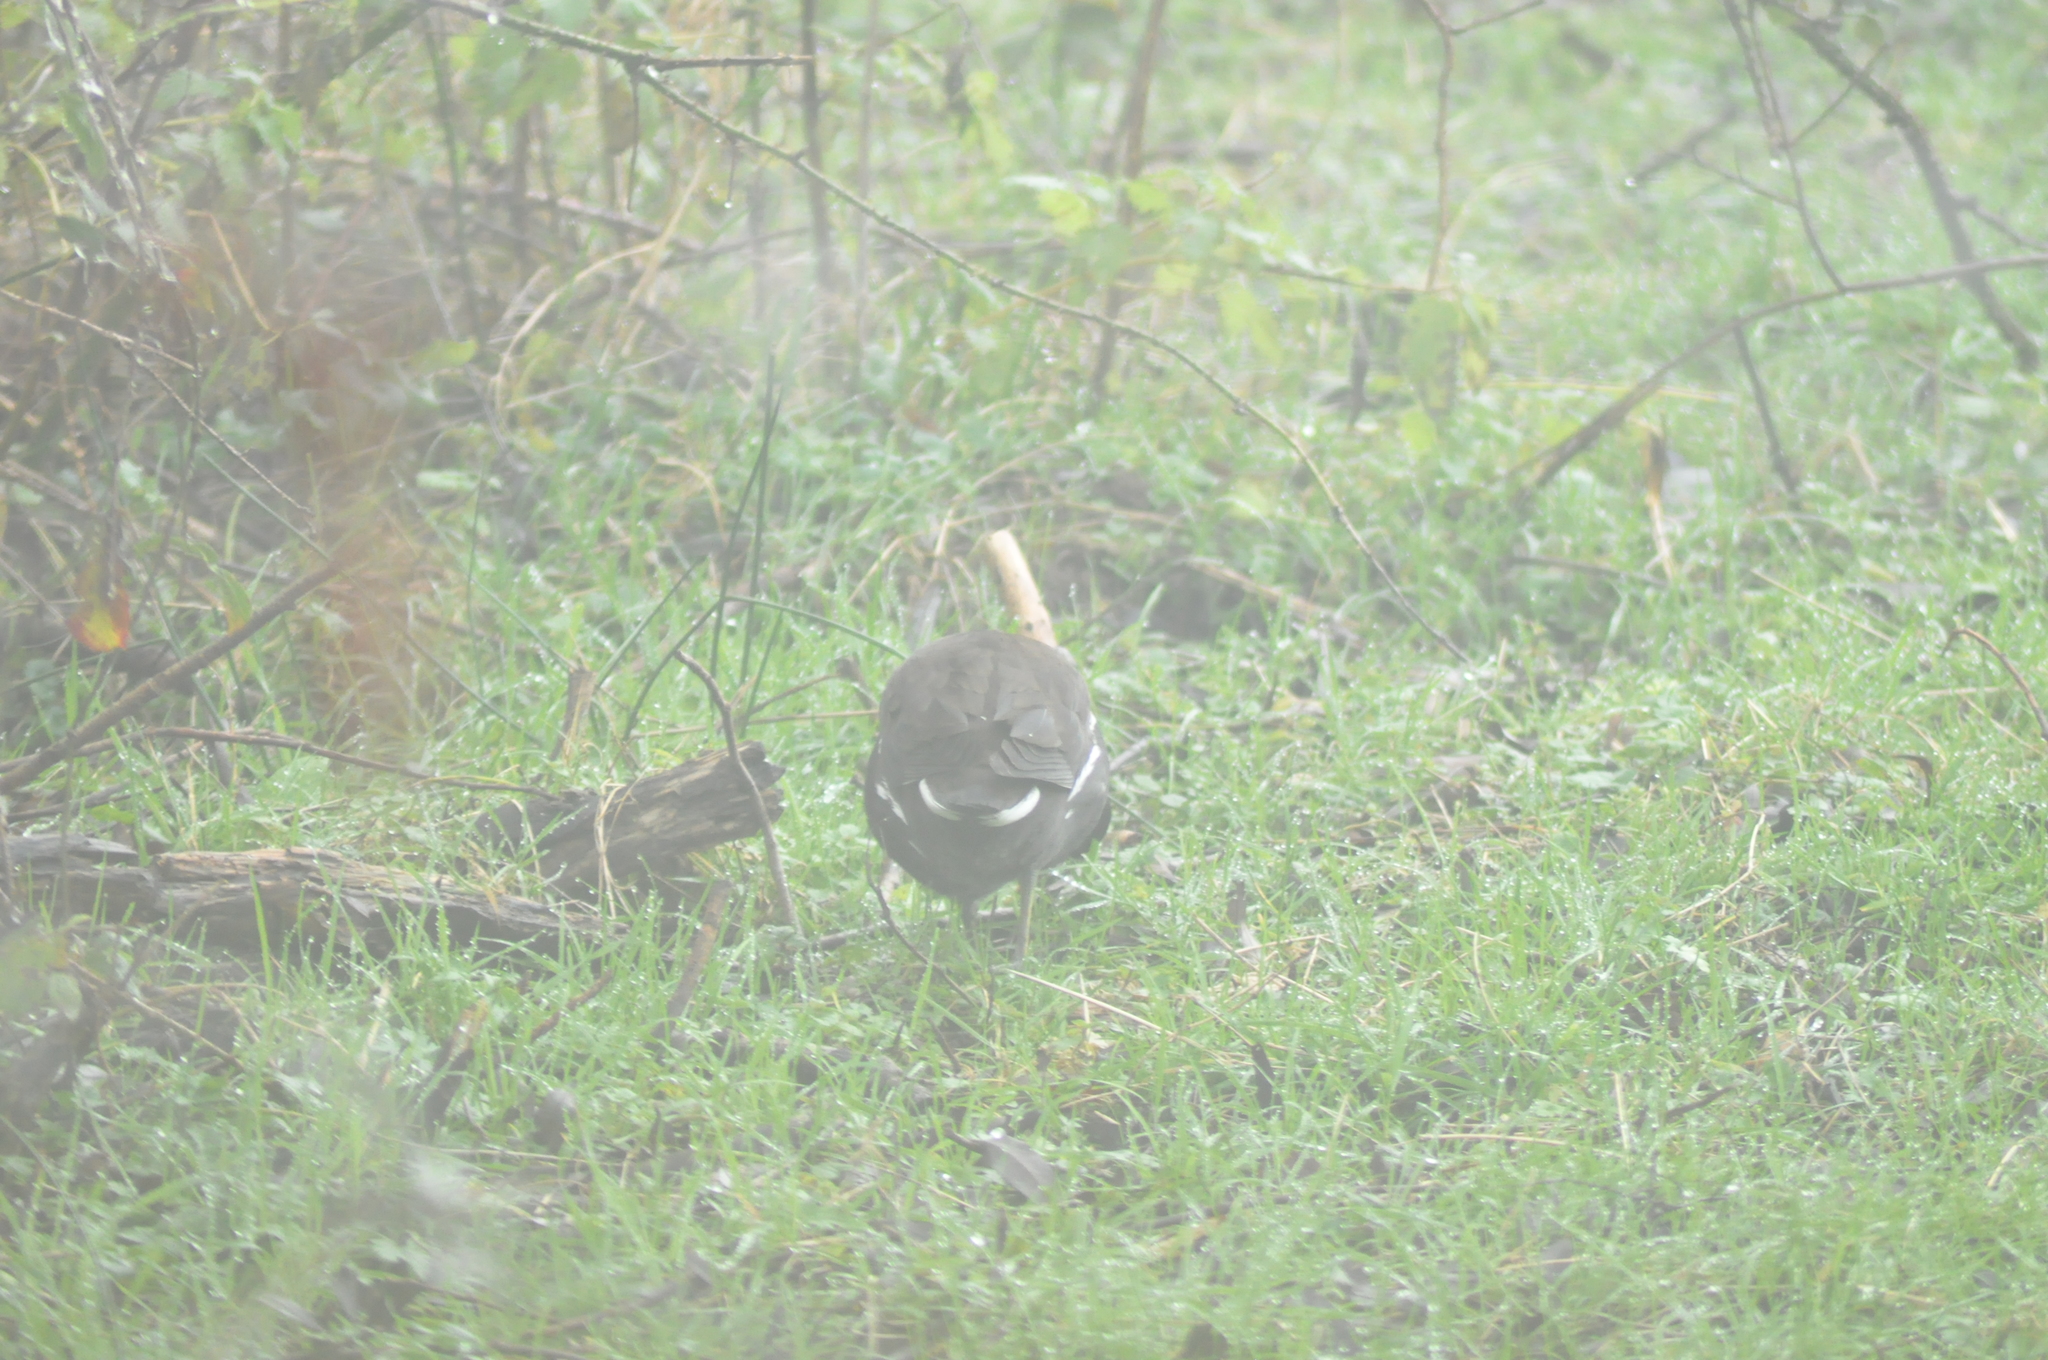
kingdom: Animalia
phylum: Chordata
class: Aves
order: Gruiformes
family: Rallidae
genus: Gallinula
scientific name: Gallinula chloropus
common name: Common moorhen
